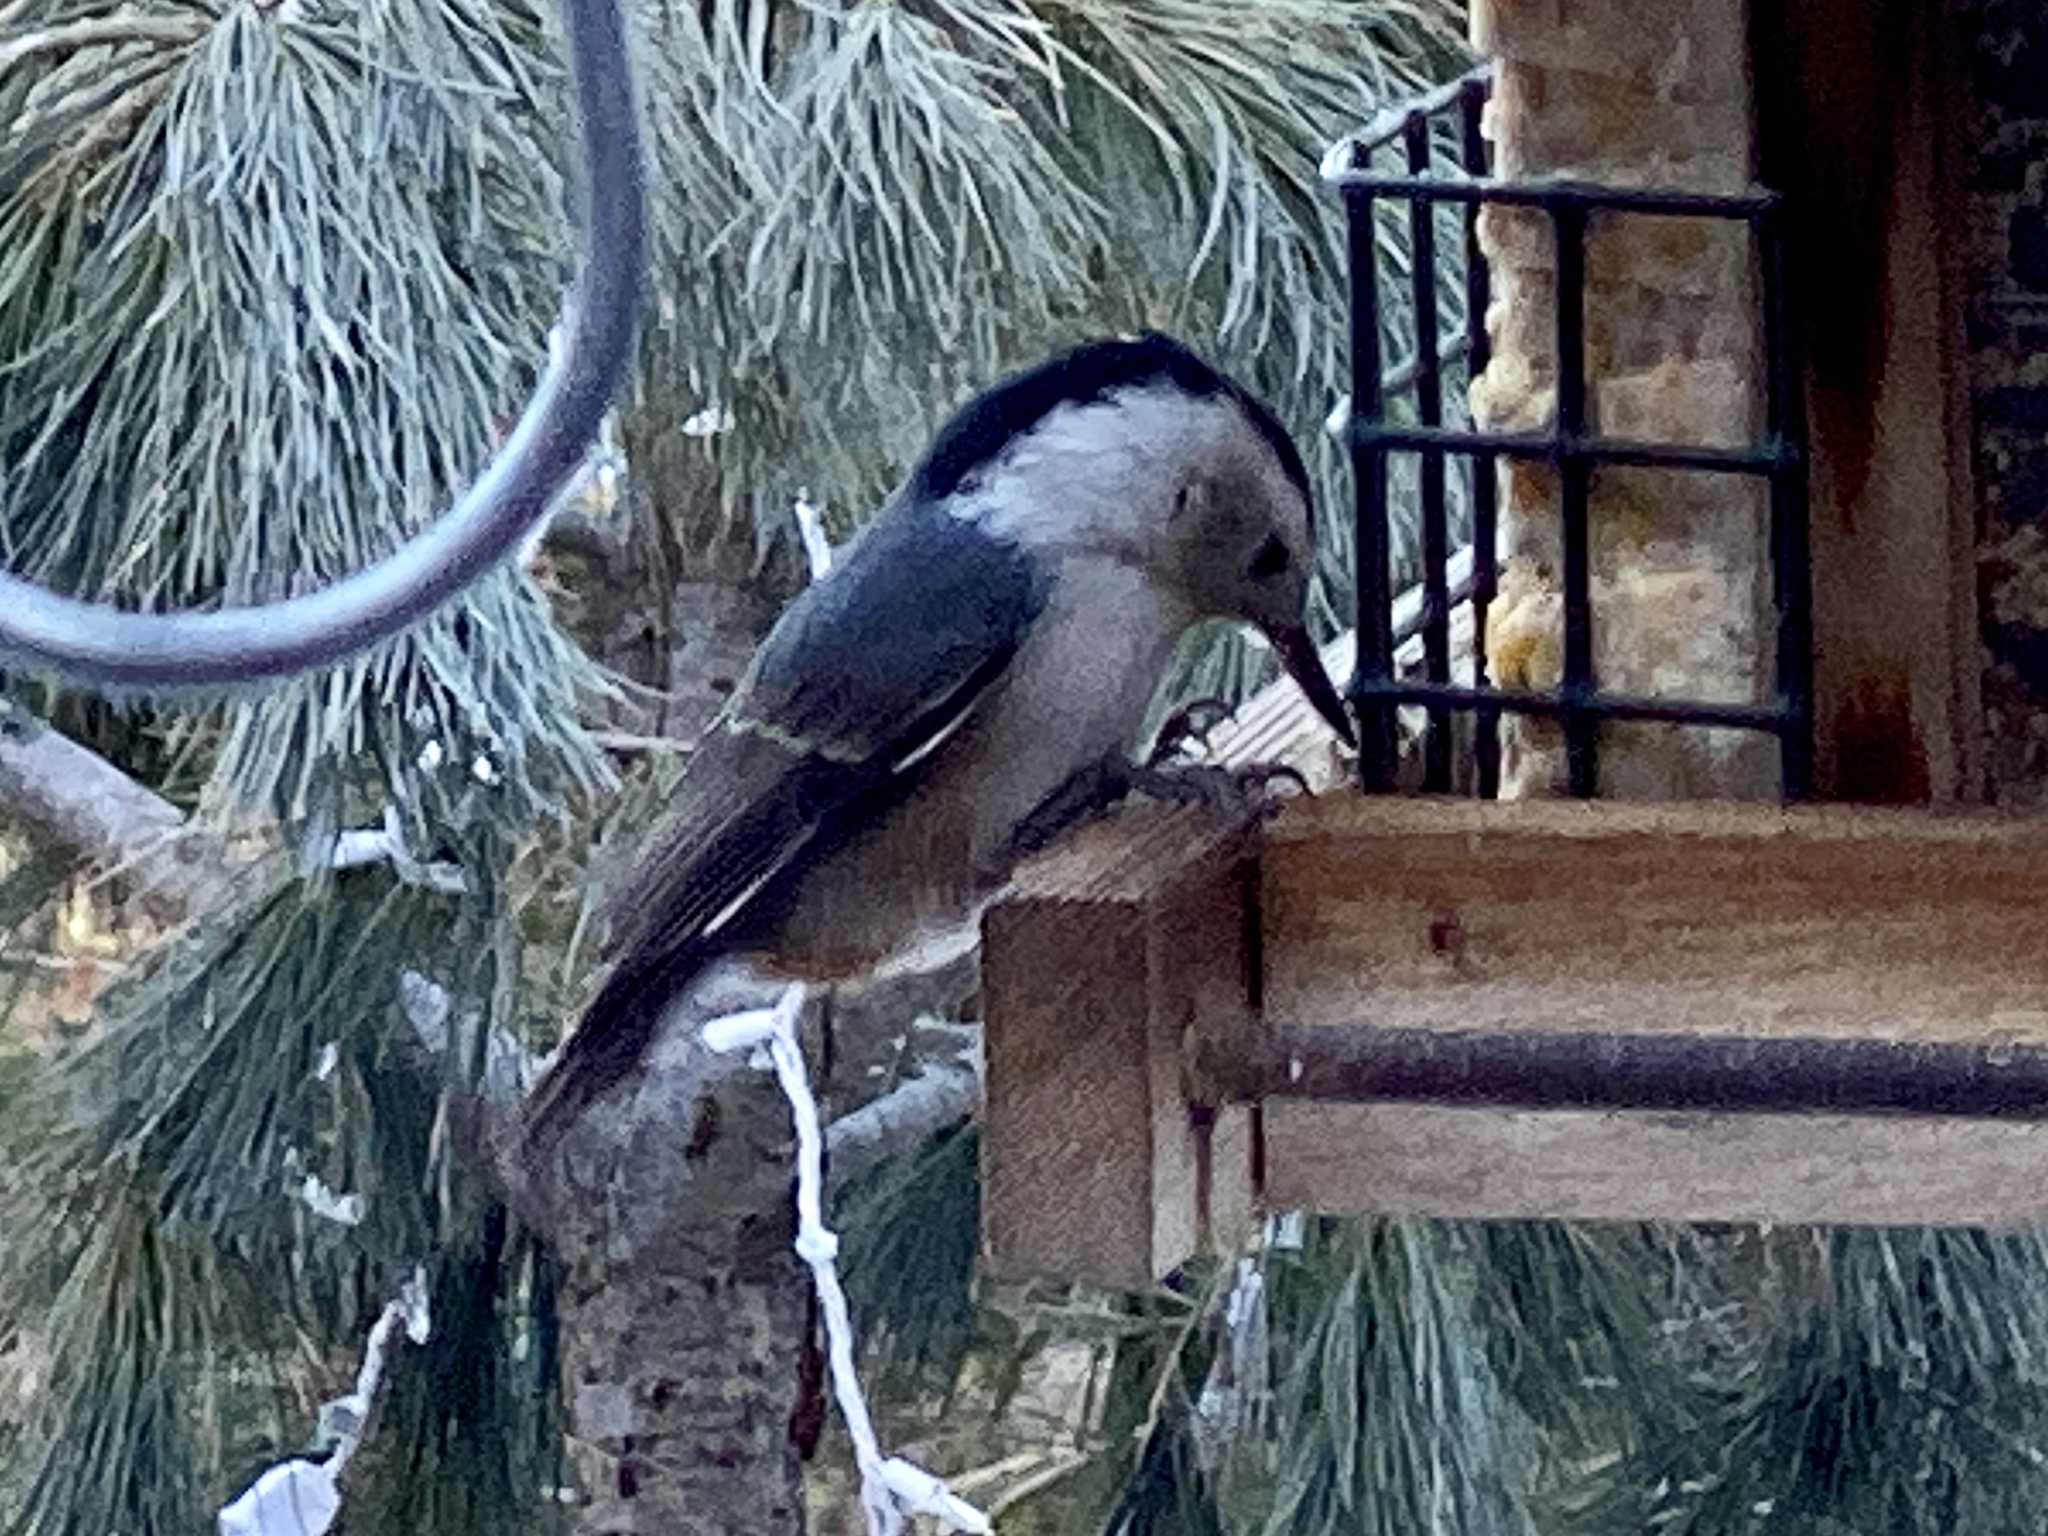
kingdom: Animalia
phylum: Chordata
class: Aves
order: Passeriformes
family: Sittidae
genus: Sitta
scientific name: Sitta carolinensis
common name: White-breasted nuthatch
